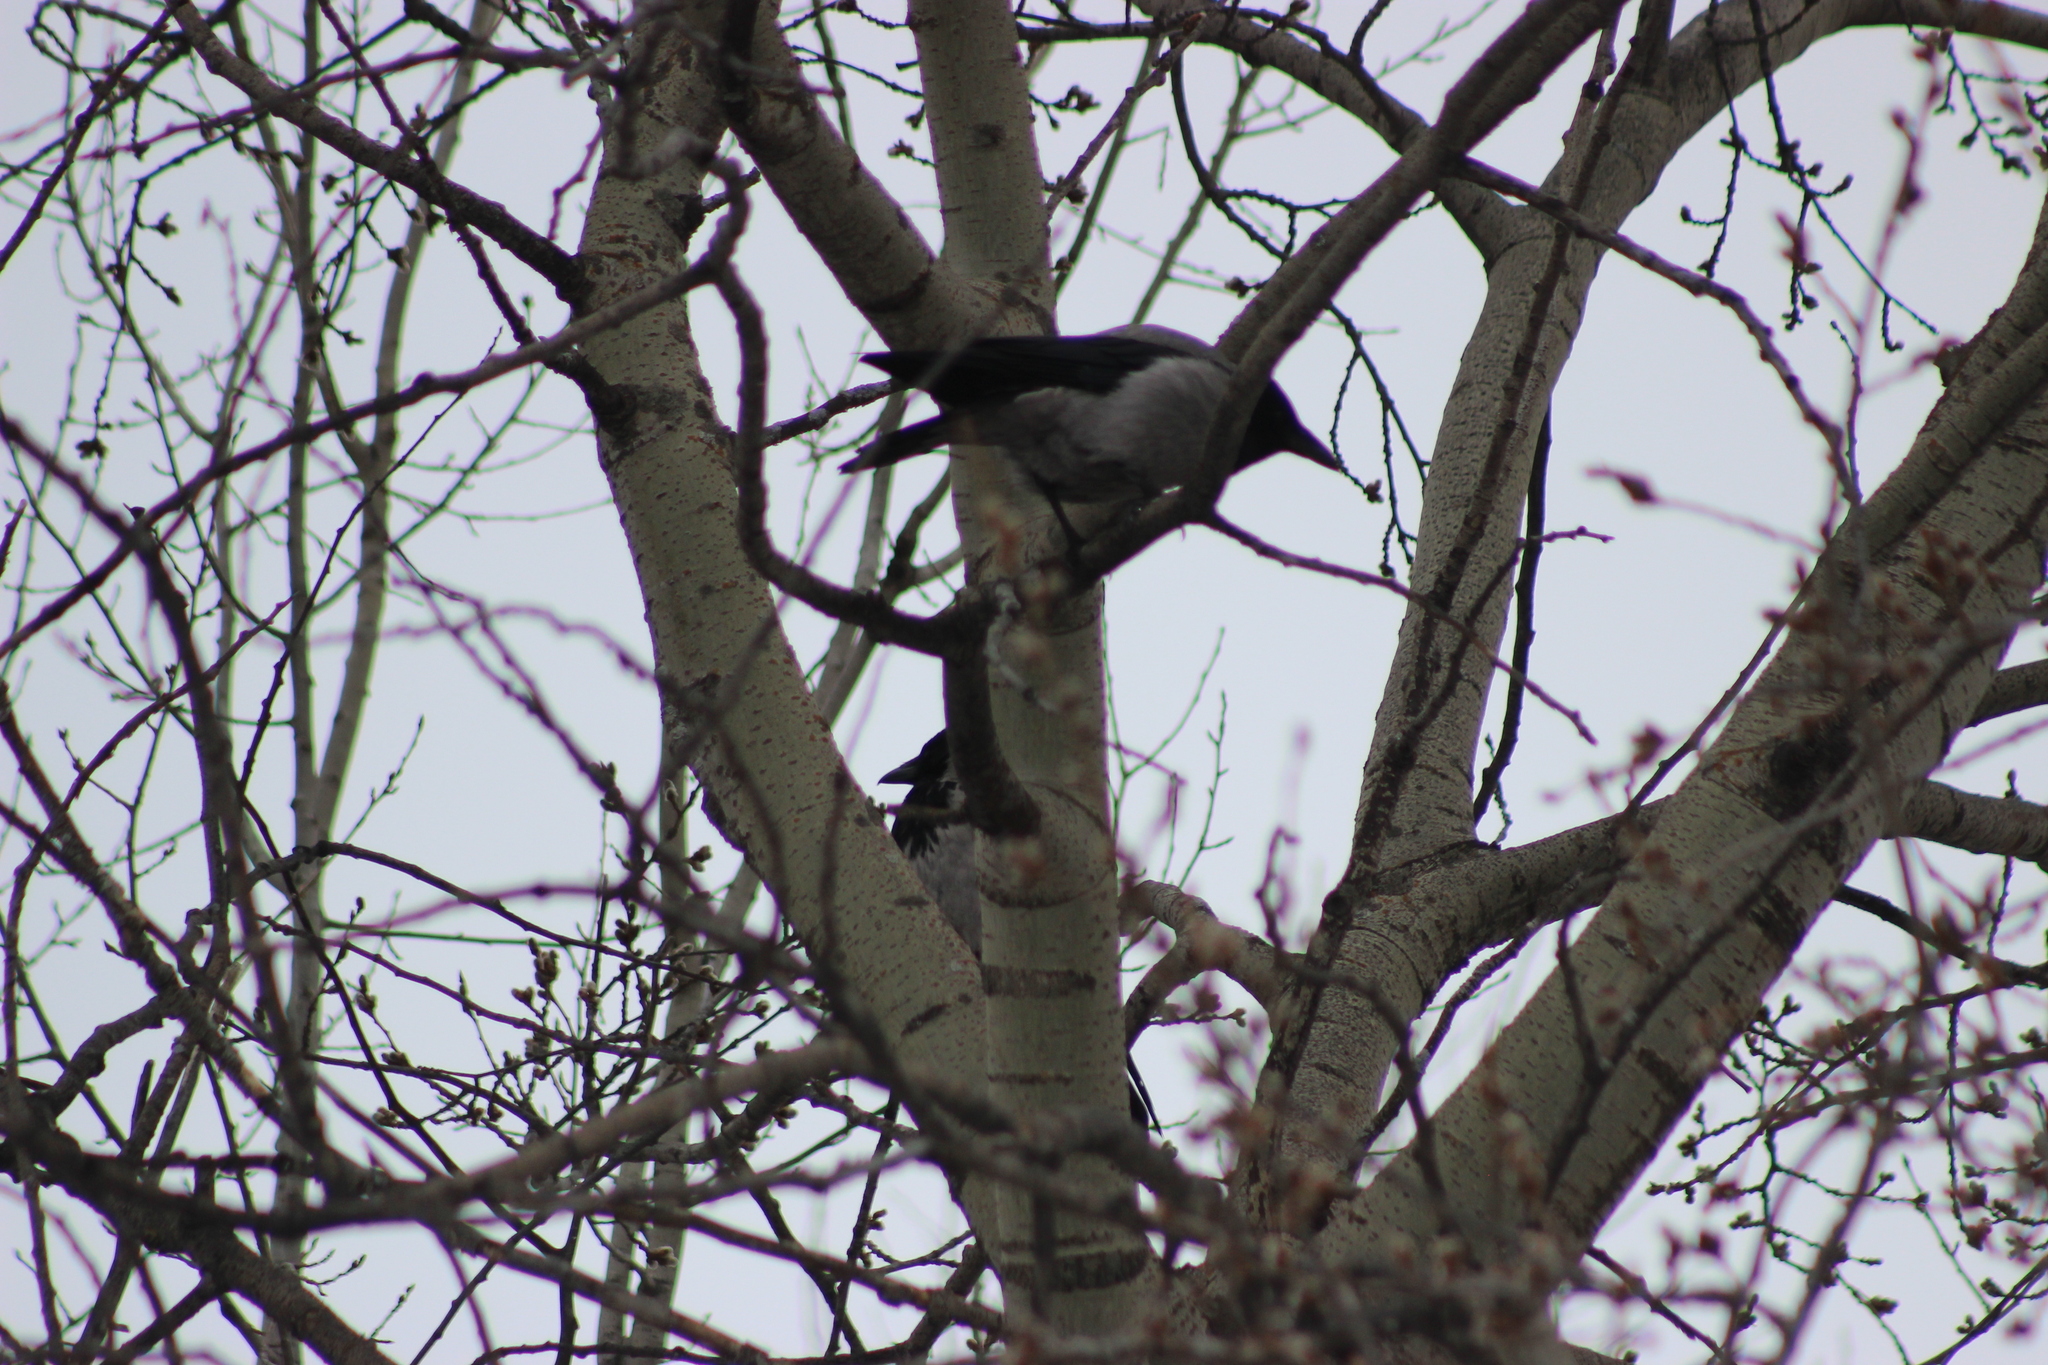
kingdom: Animalia
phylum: Chordata
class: Aves
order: Passeriformes
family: Corvidae
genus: Corvus
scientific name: Corvus cornix
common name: Hooded crow
